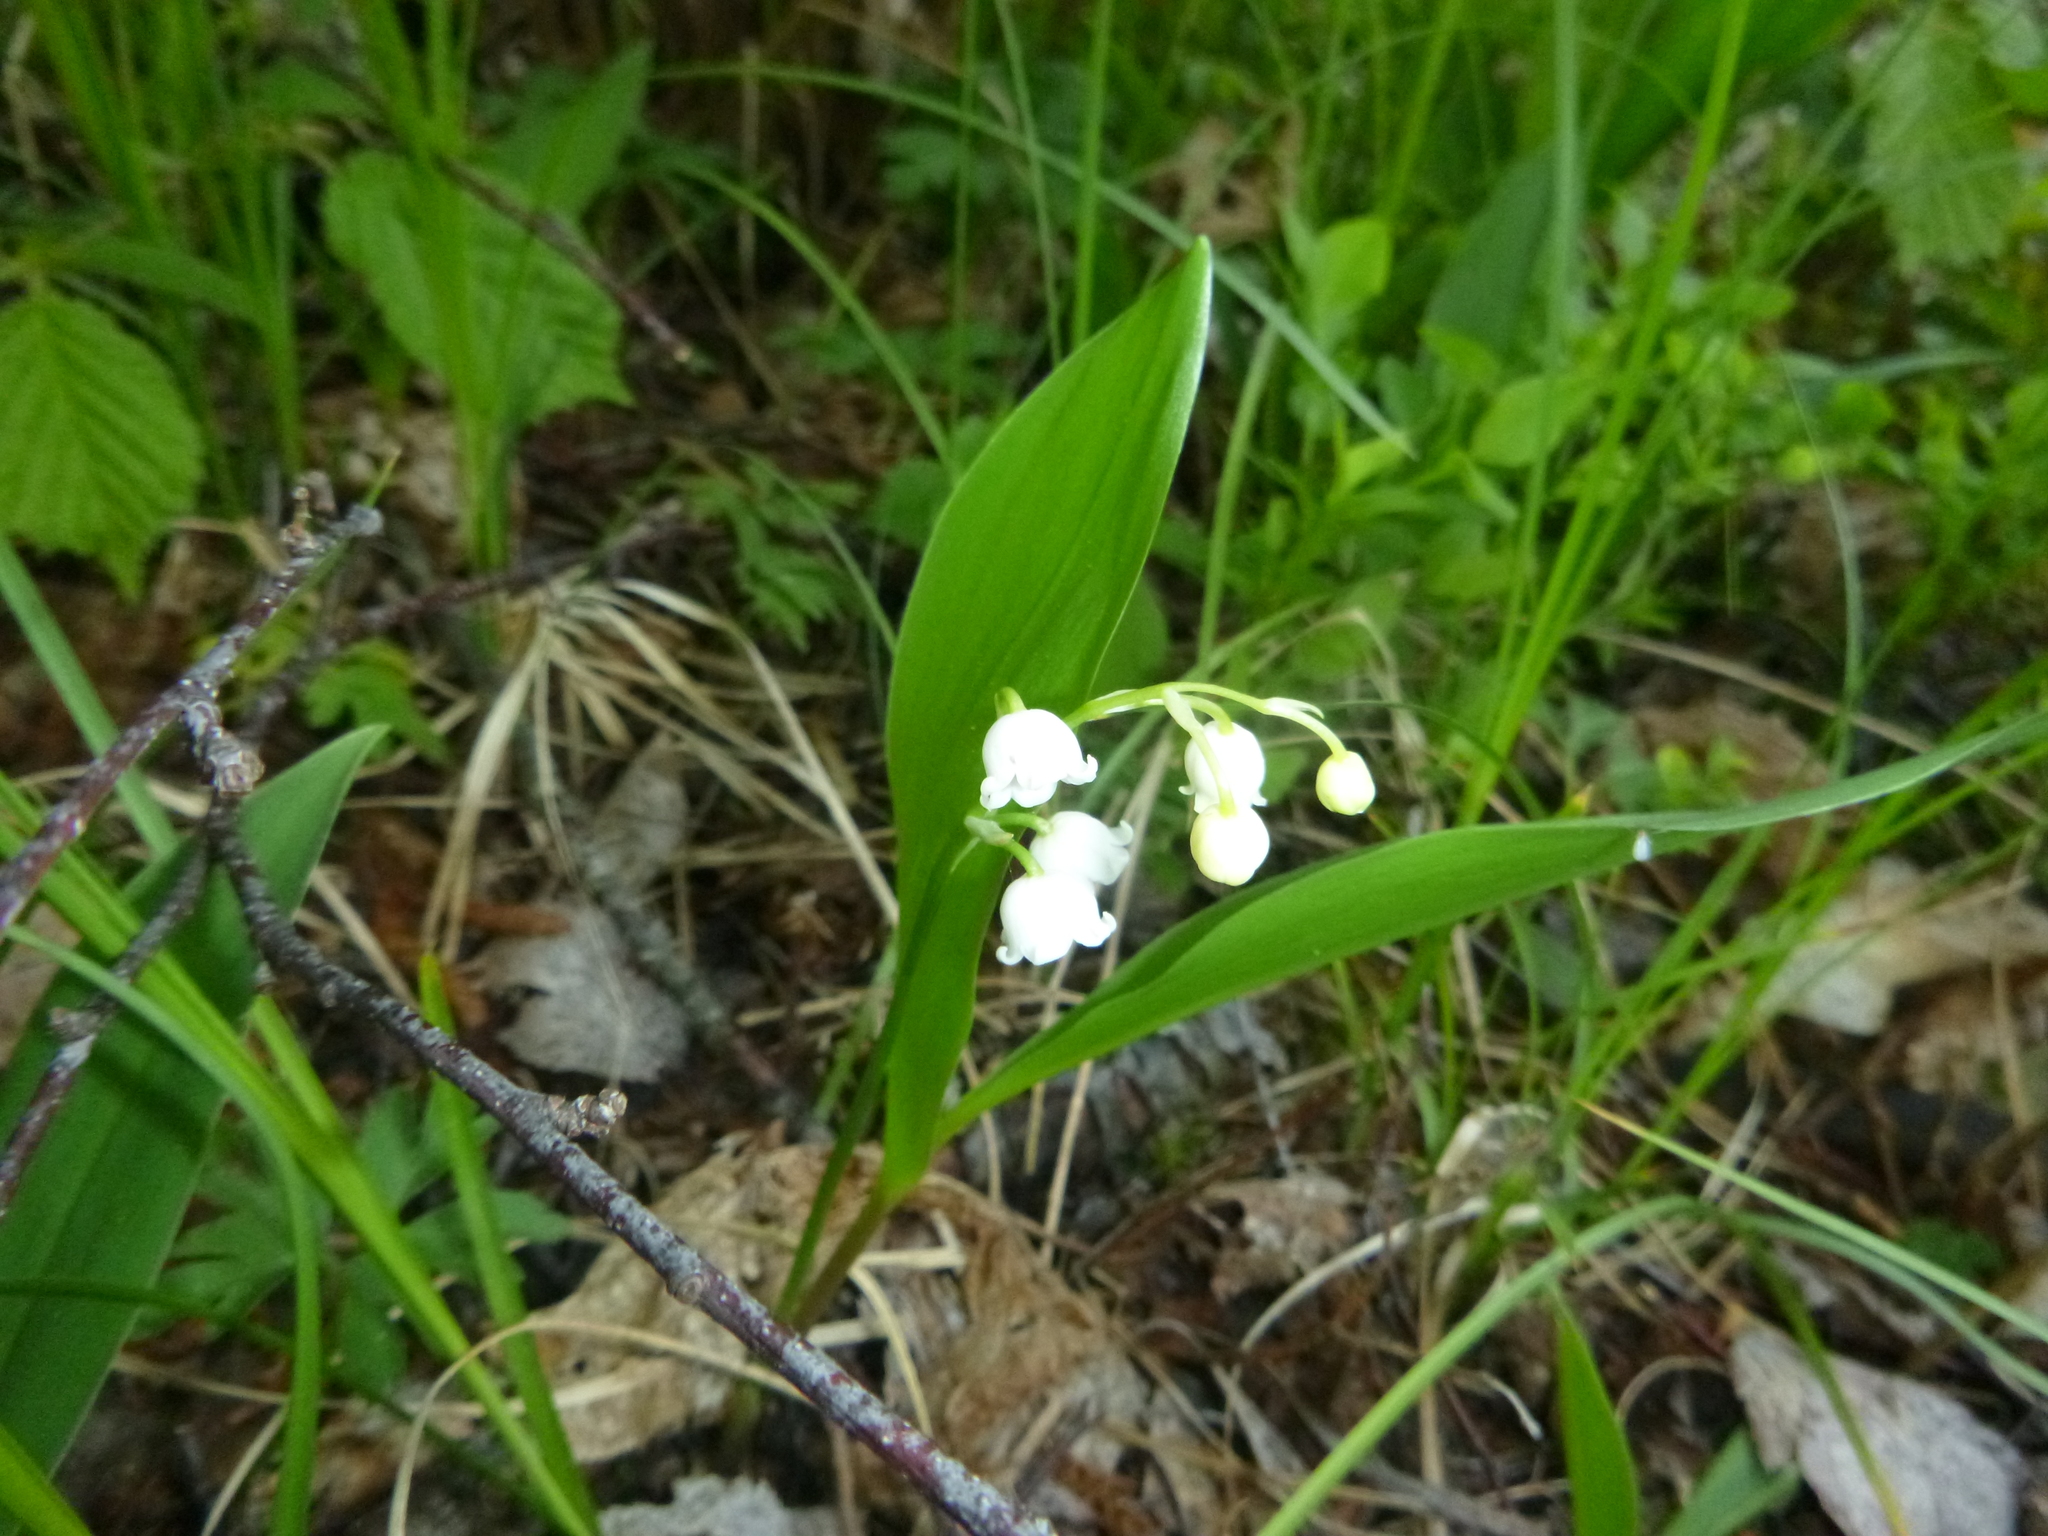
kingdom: Plantae
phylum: Tracheophyta
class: Liliopsida
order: Asparagales
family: Asparagaceae
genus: Convallaria
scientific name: Convallaria majalis
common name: Lily-of-the-valley
